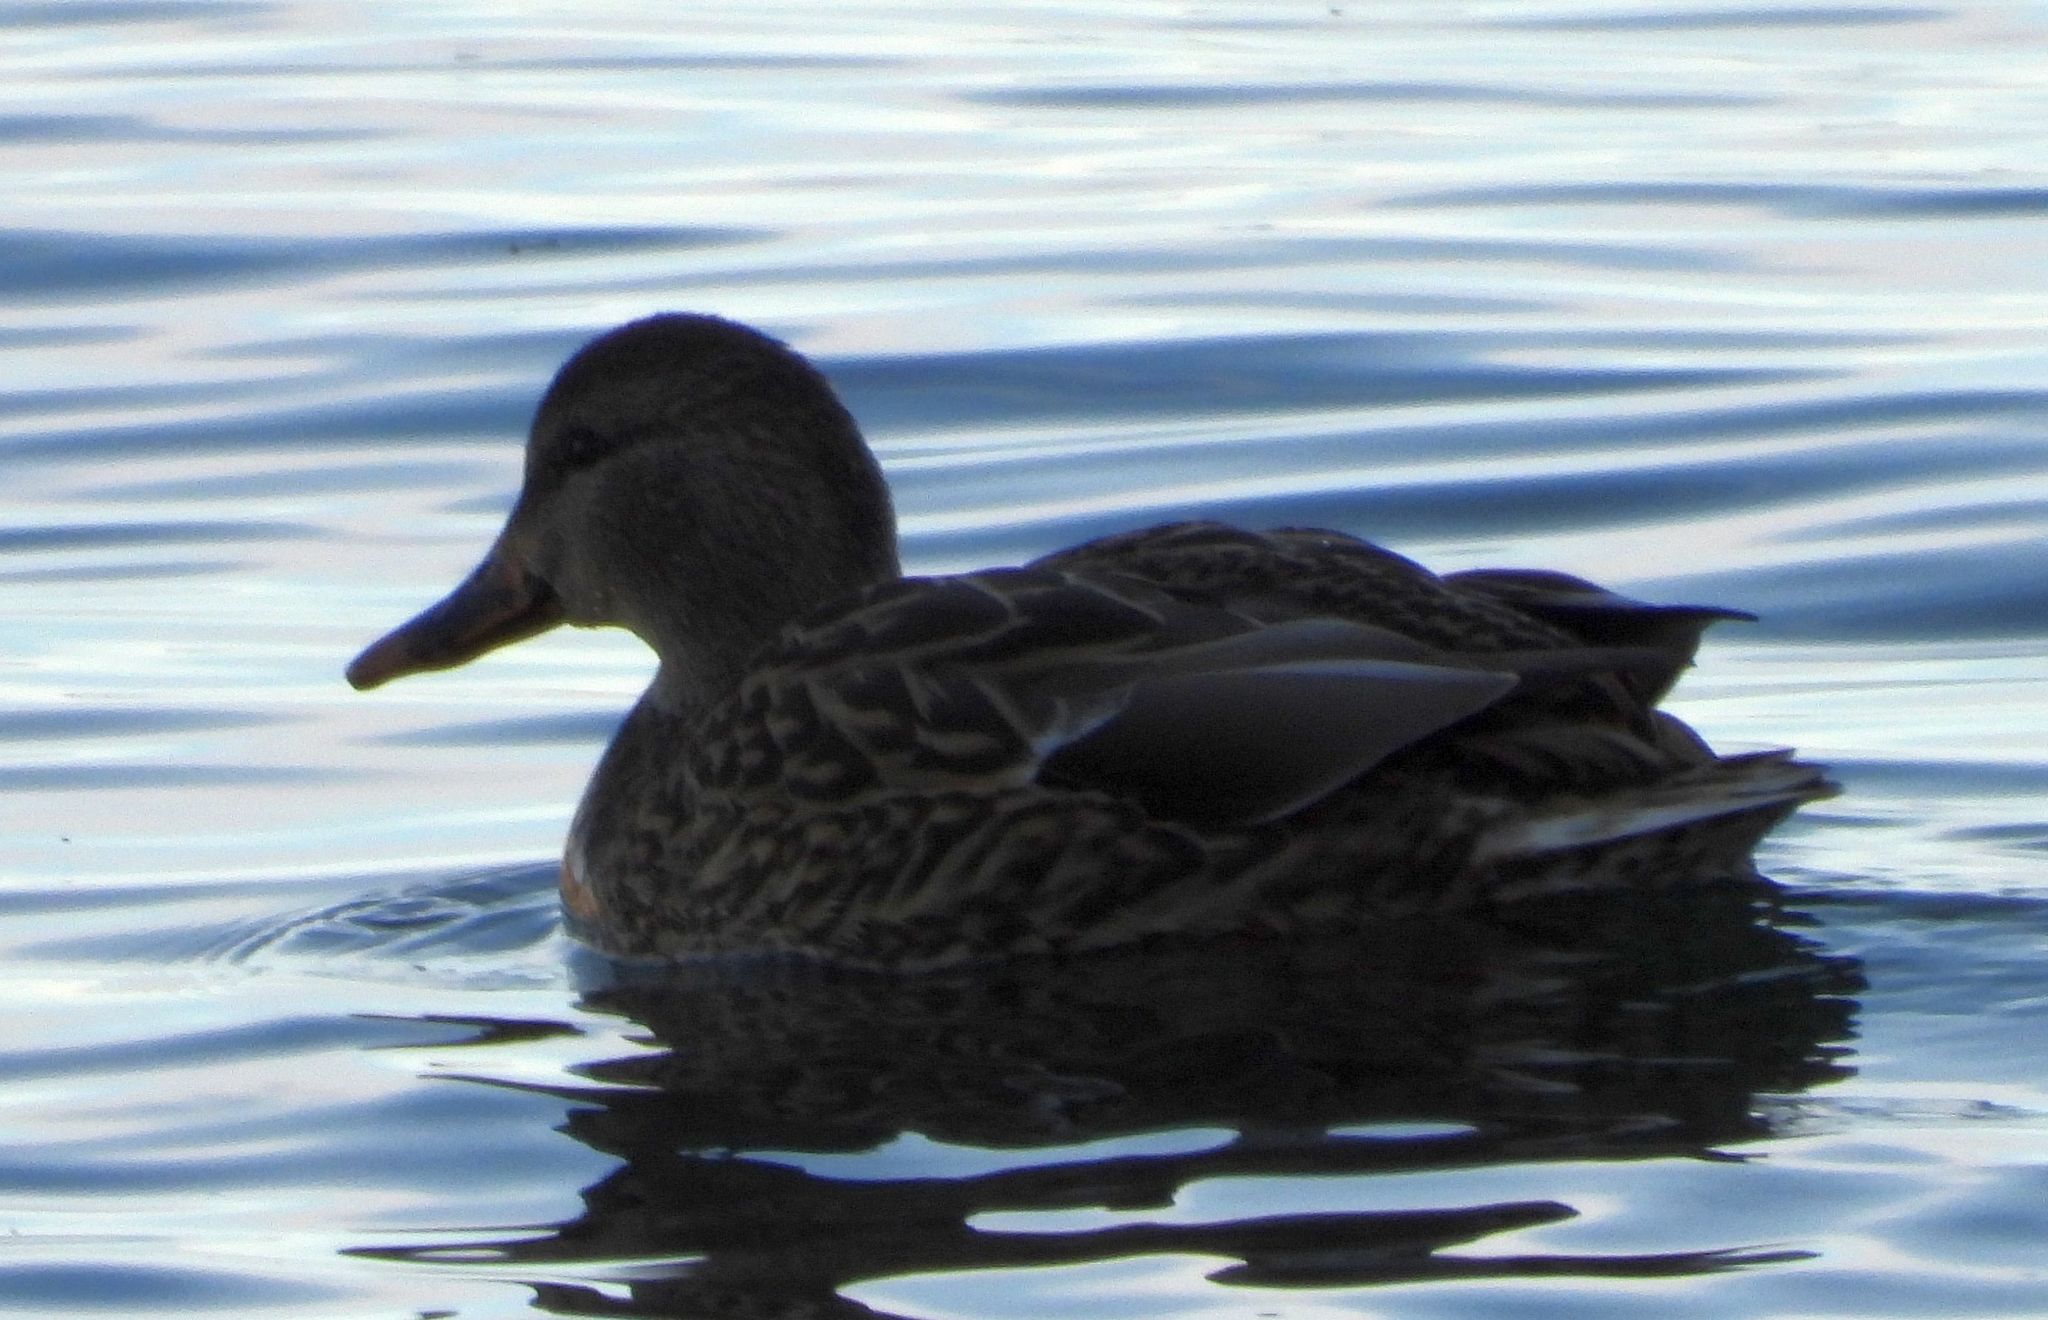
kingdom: Animalia
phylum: Chordata
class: Aves
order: Anseriformes
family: Anatidae
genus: Anas
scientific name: Anas platyrhynchos
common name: Mallard
